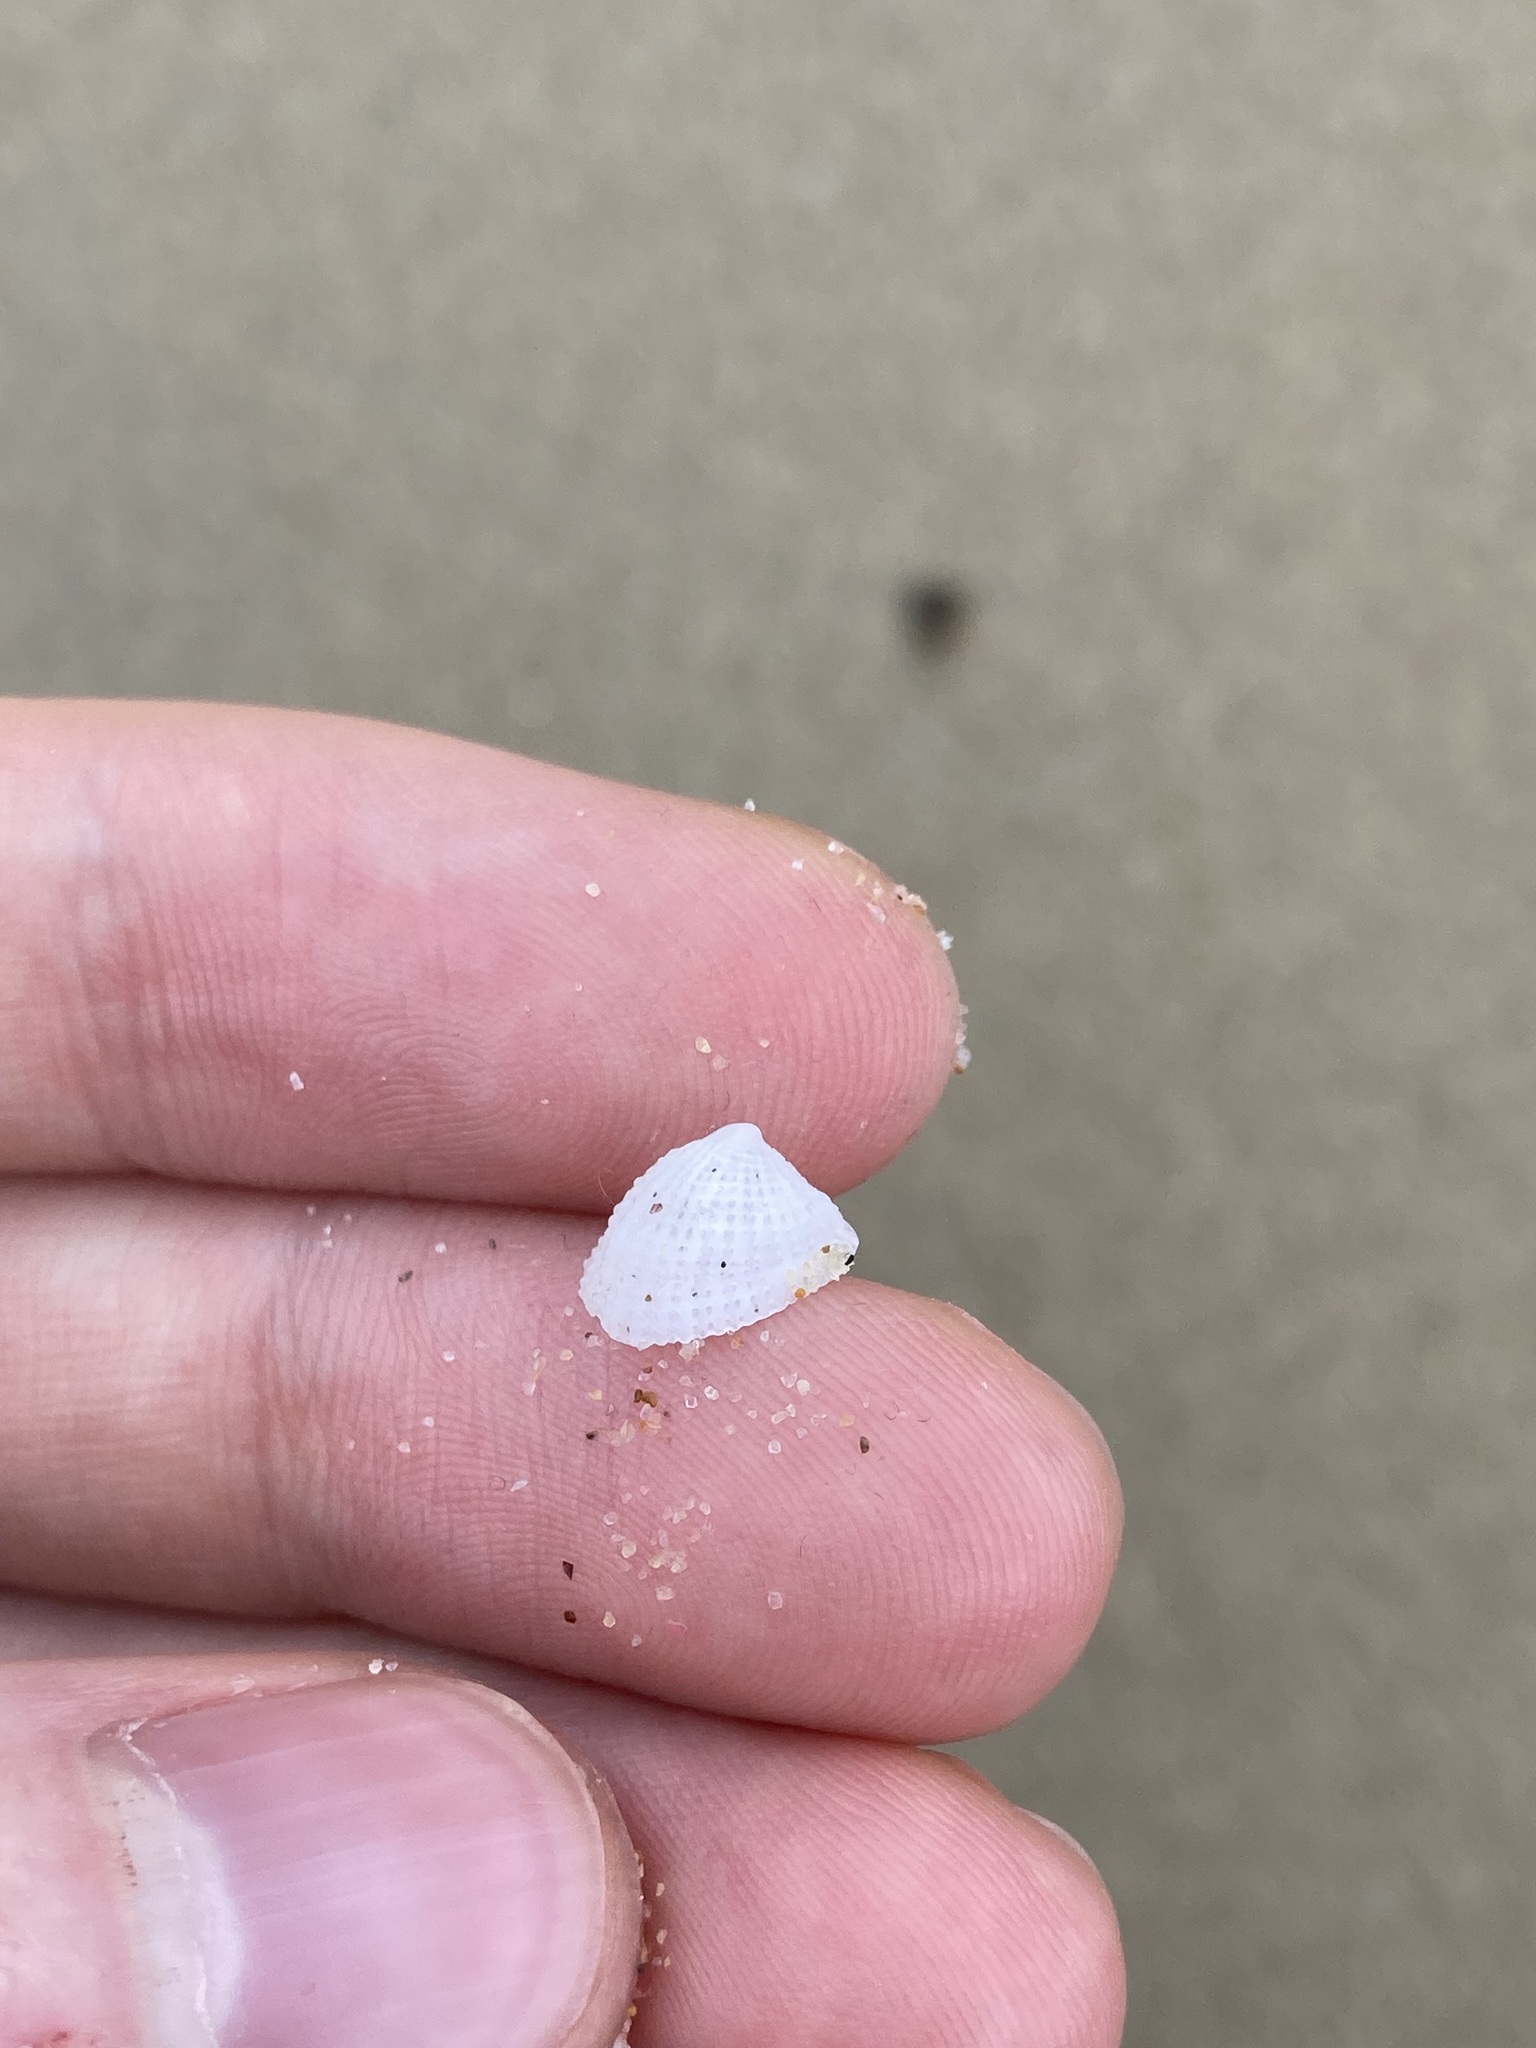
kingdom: Animalia
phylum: Mollusca
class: Gastropoda
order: Lepetellida
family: Fissurellidae
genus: Emarginula
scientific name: Emarginula candida
